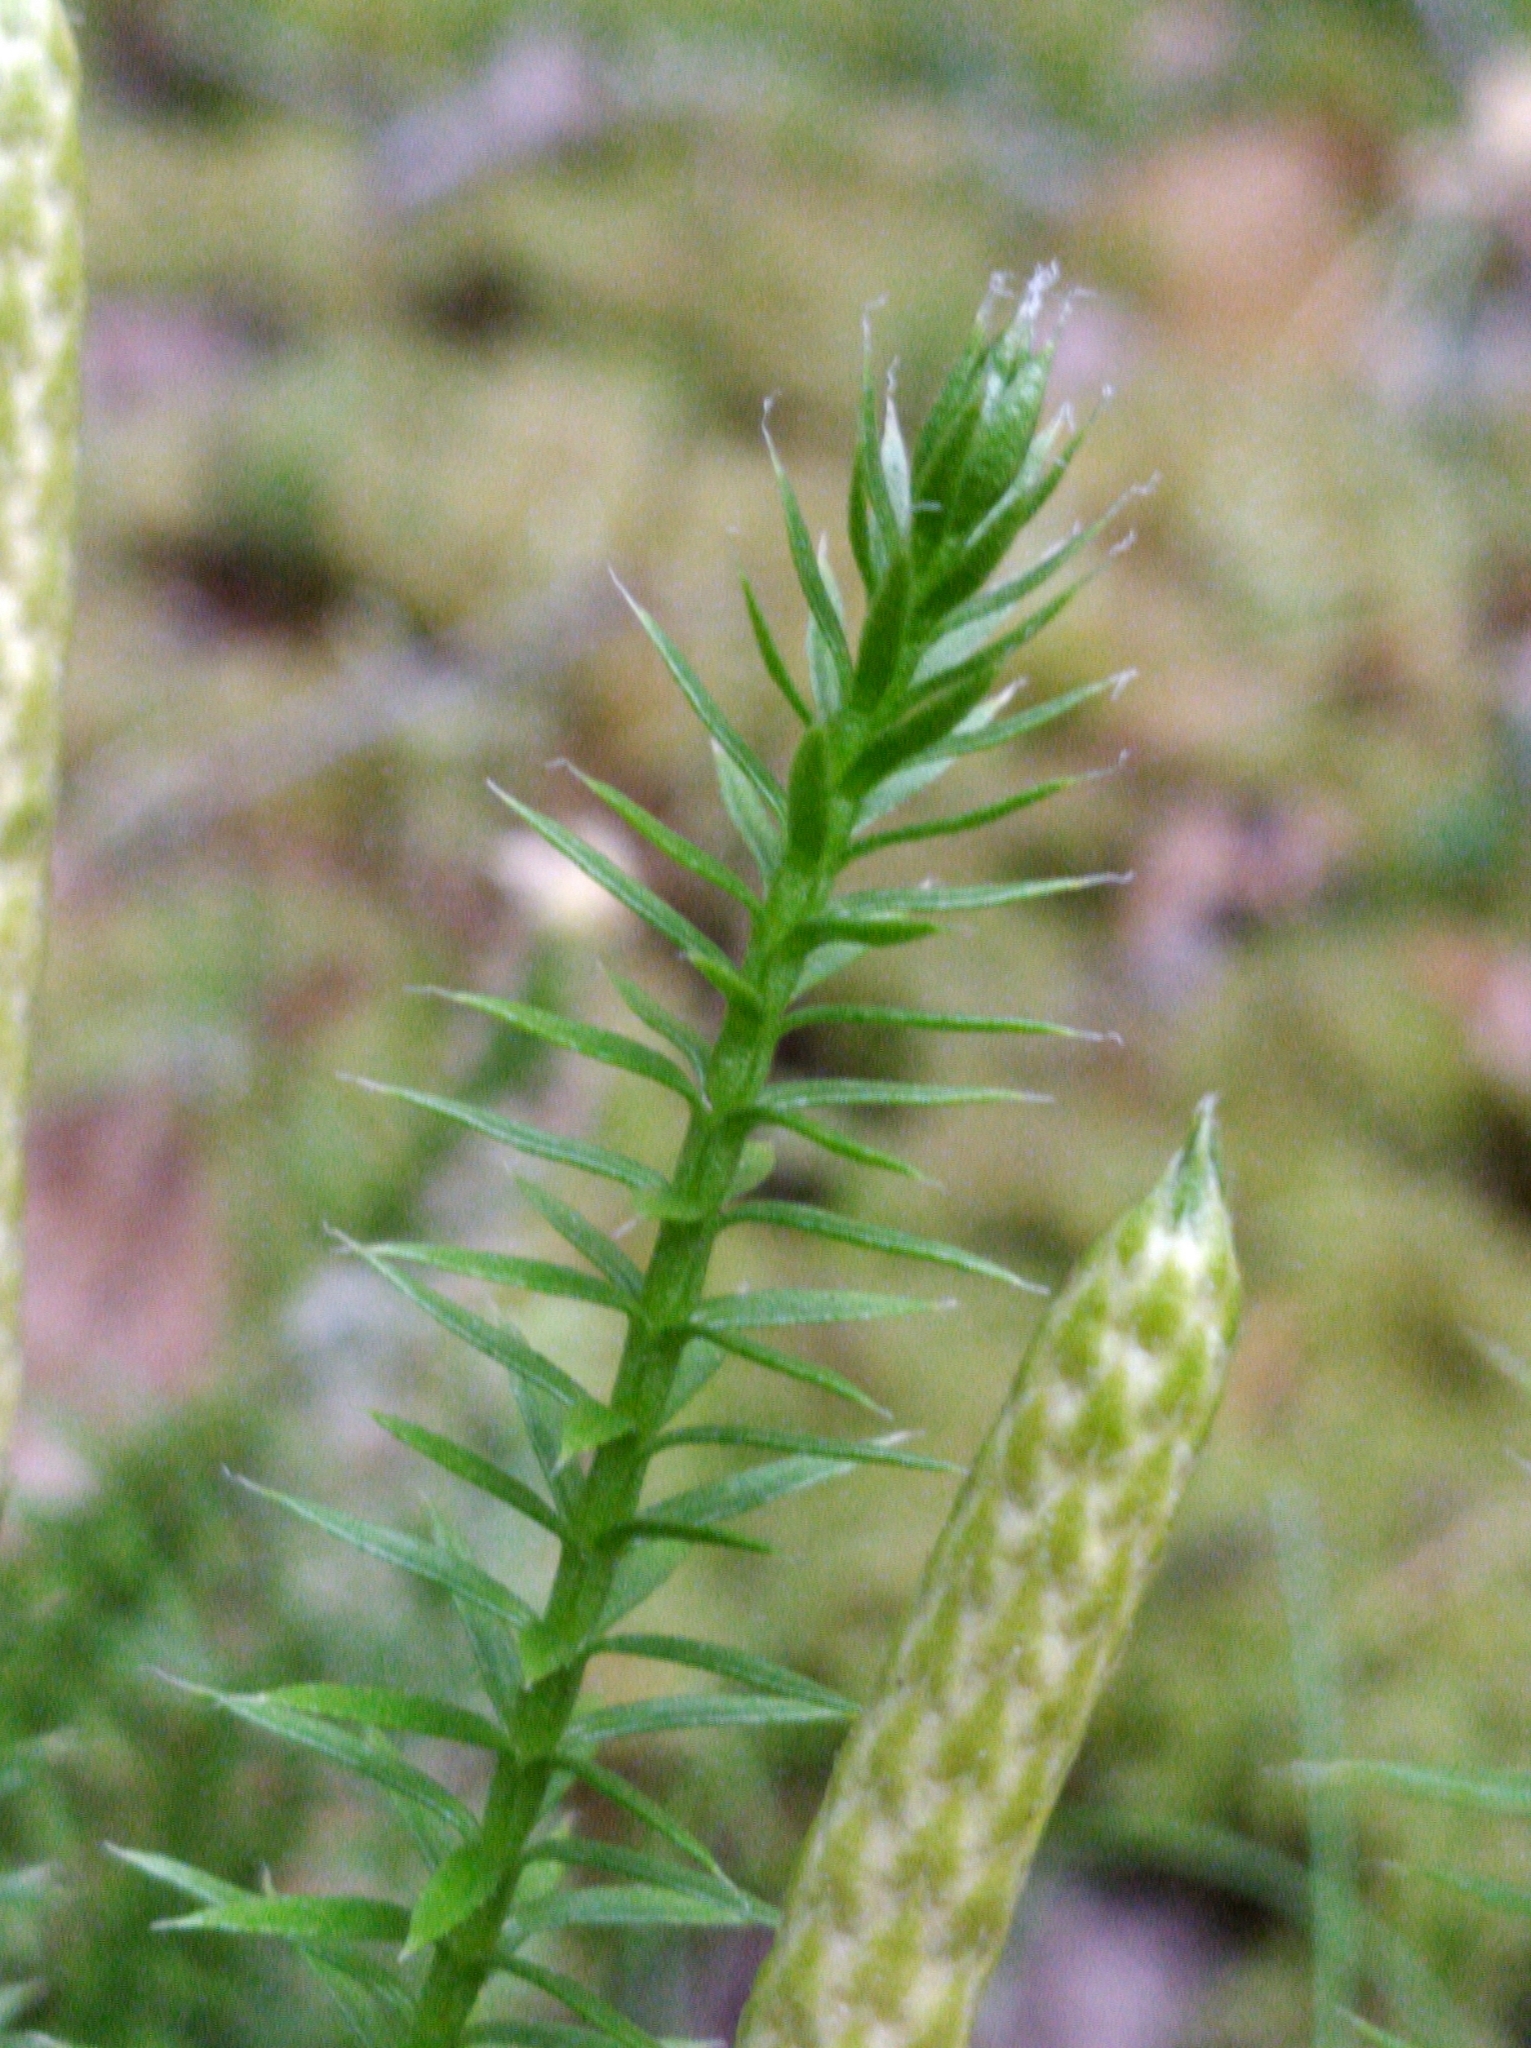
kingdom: Plantae
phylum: Tracheophyta
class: Lycopodiopsida
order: Lycopodiales
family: Lycopodiaceae
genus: Spinulum
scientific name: Spinulum annotinum
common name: Interrupted club-moss
